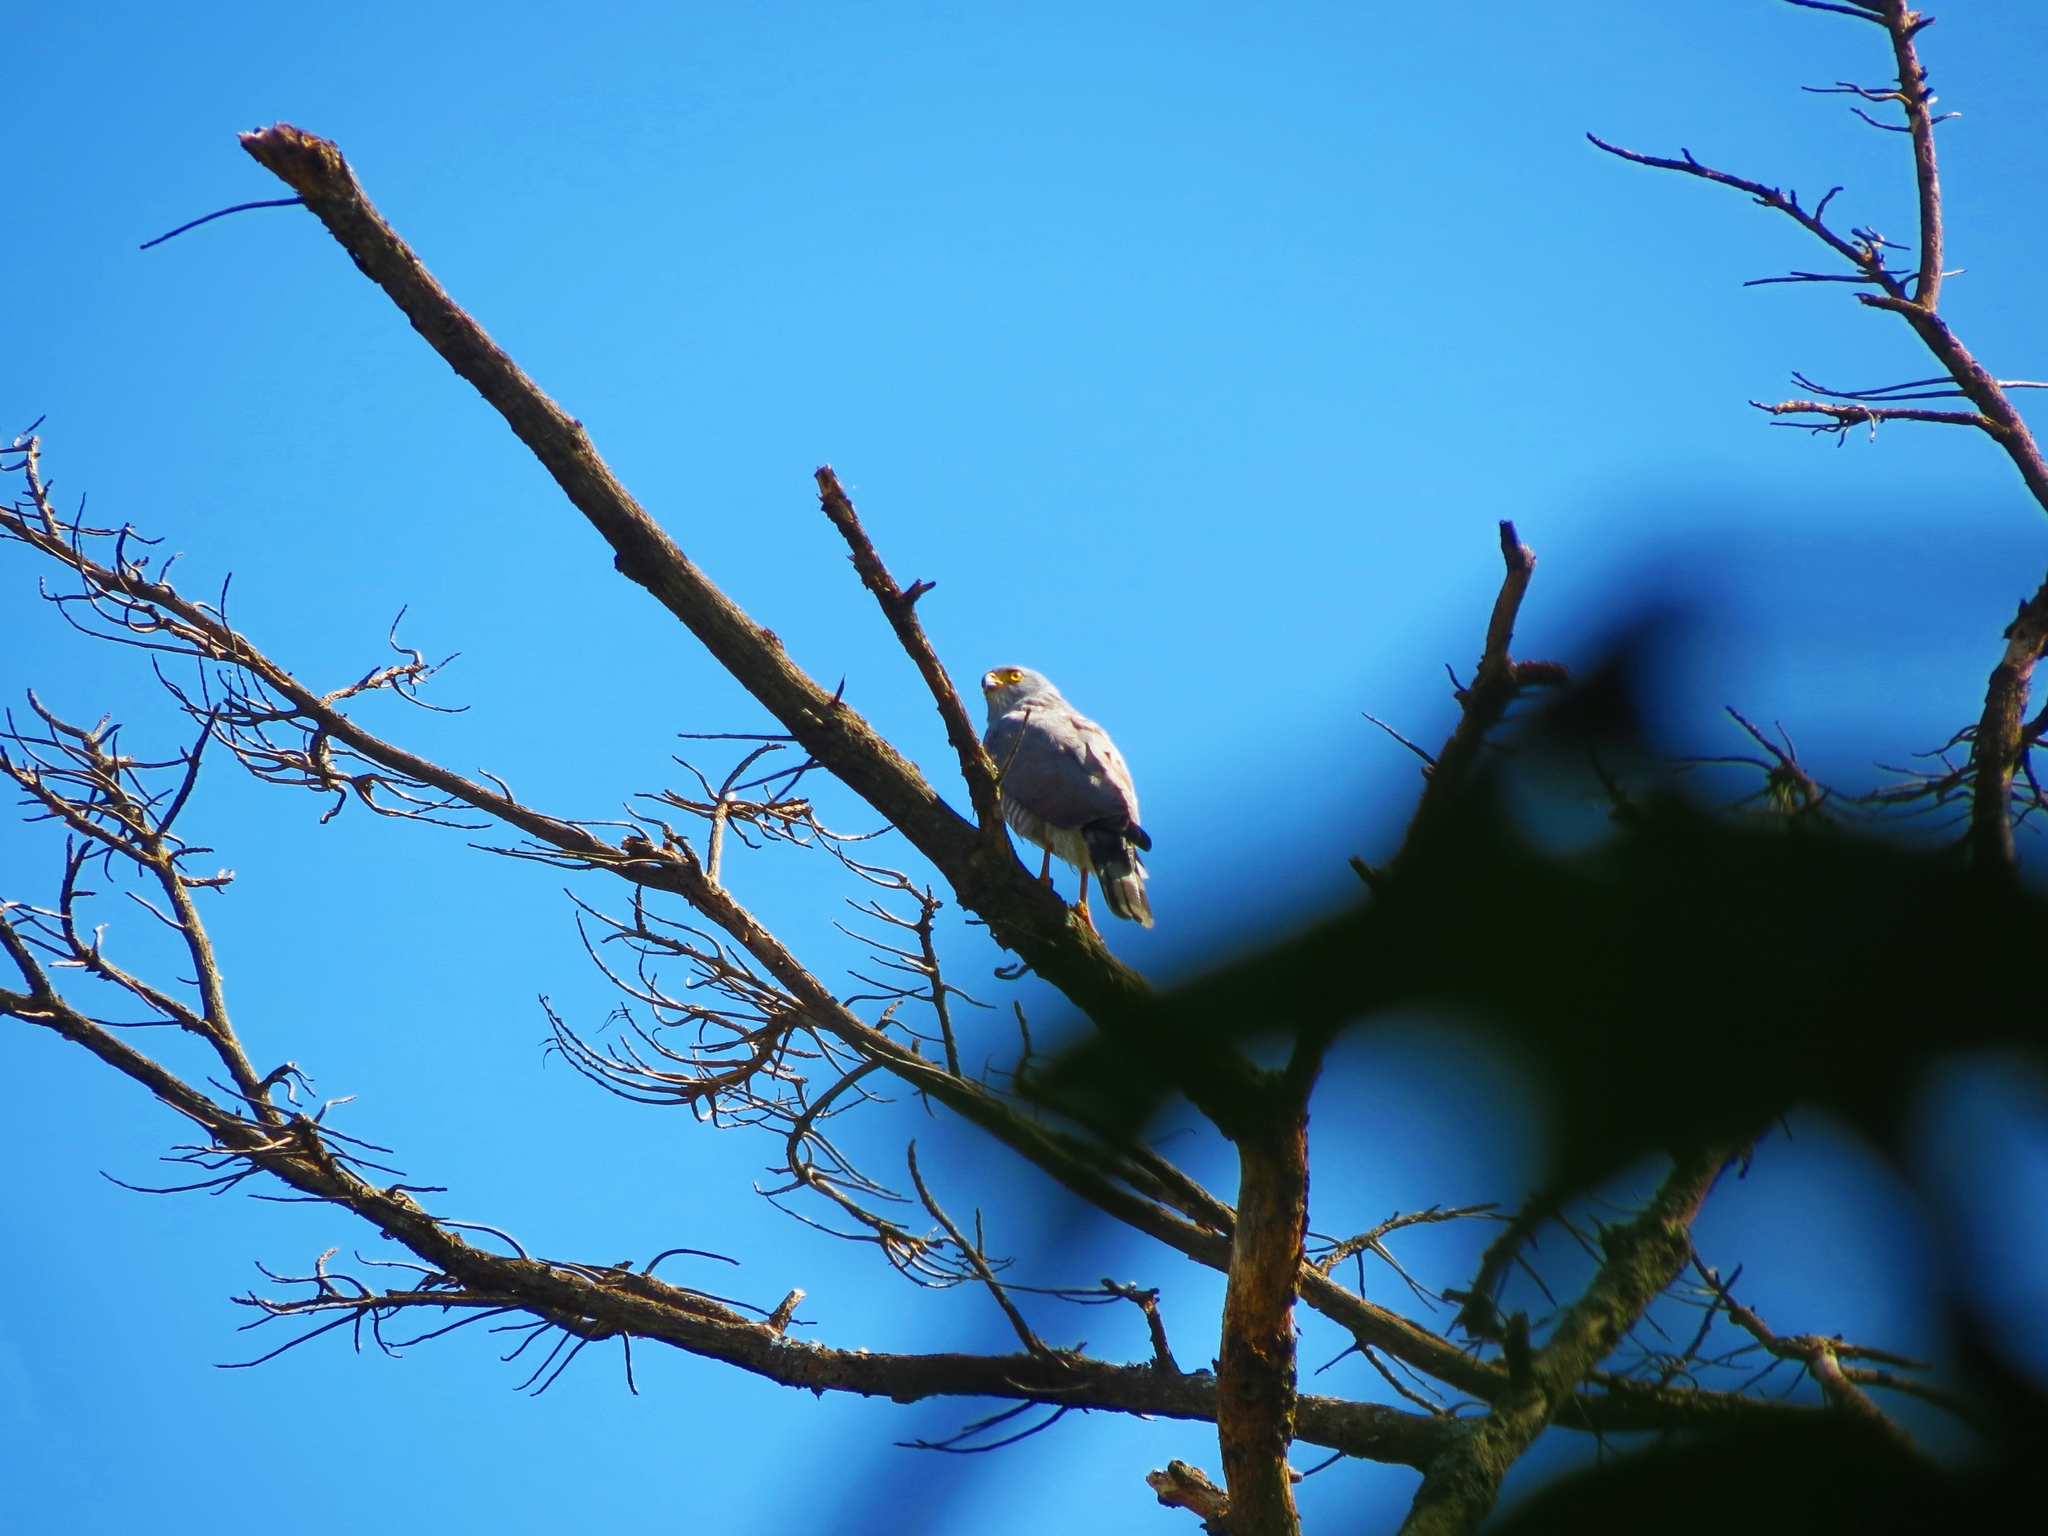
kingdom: Animalia
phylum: Chordata
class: Aves
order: Accipitriformes
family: Accipitridae
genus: Rupornis
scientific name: Rupornis magnirostris
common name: Roadside hawk
